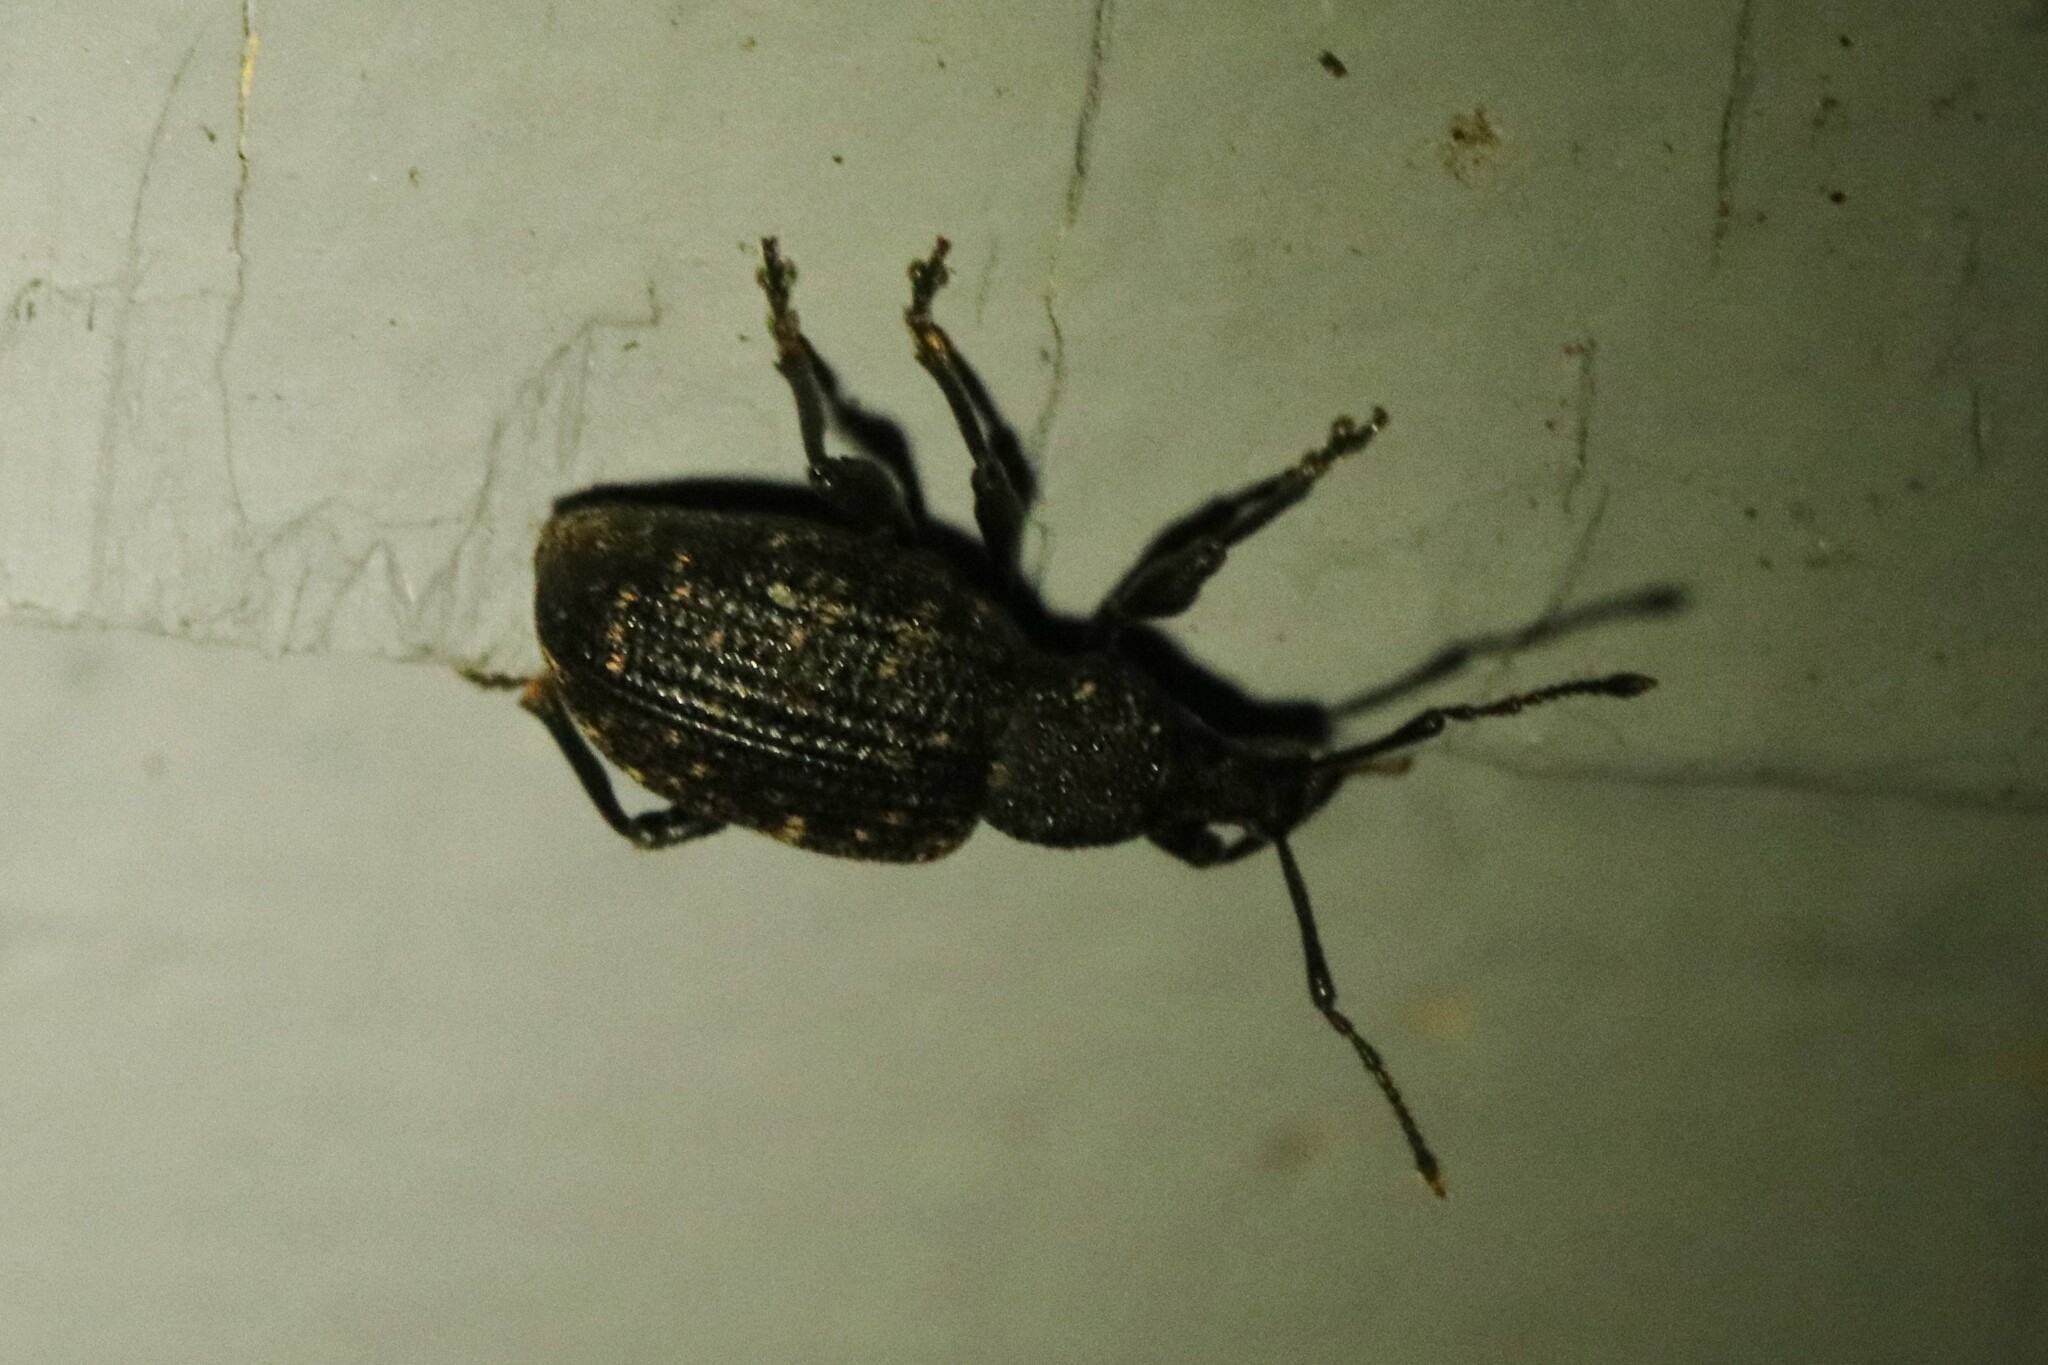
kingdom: Animalia
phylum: Arthropoda
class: Insecta
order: Coleoptera
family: Curculionidae
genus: Otiorhynchus
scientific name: Otiorhynchus sulcatus
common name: Black vine weevil
